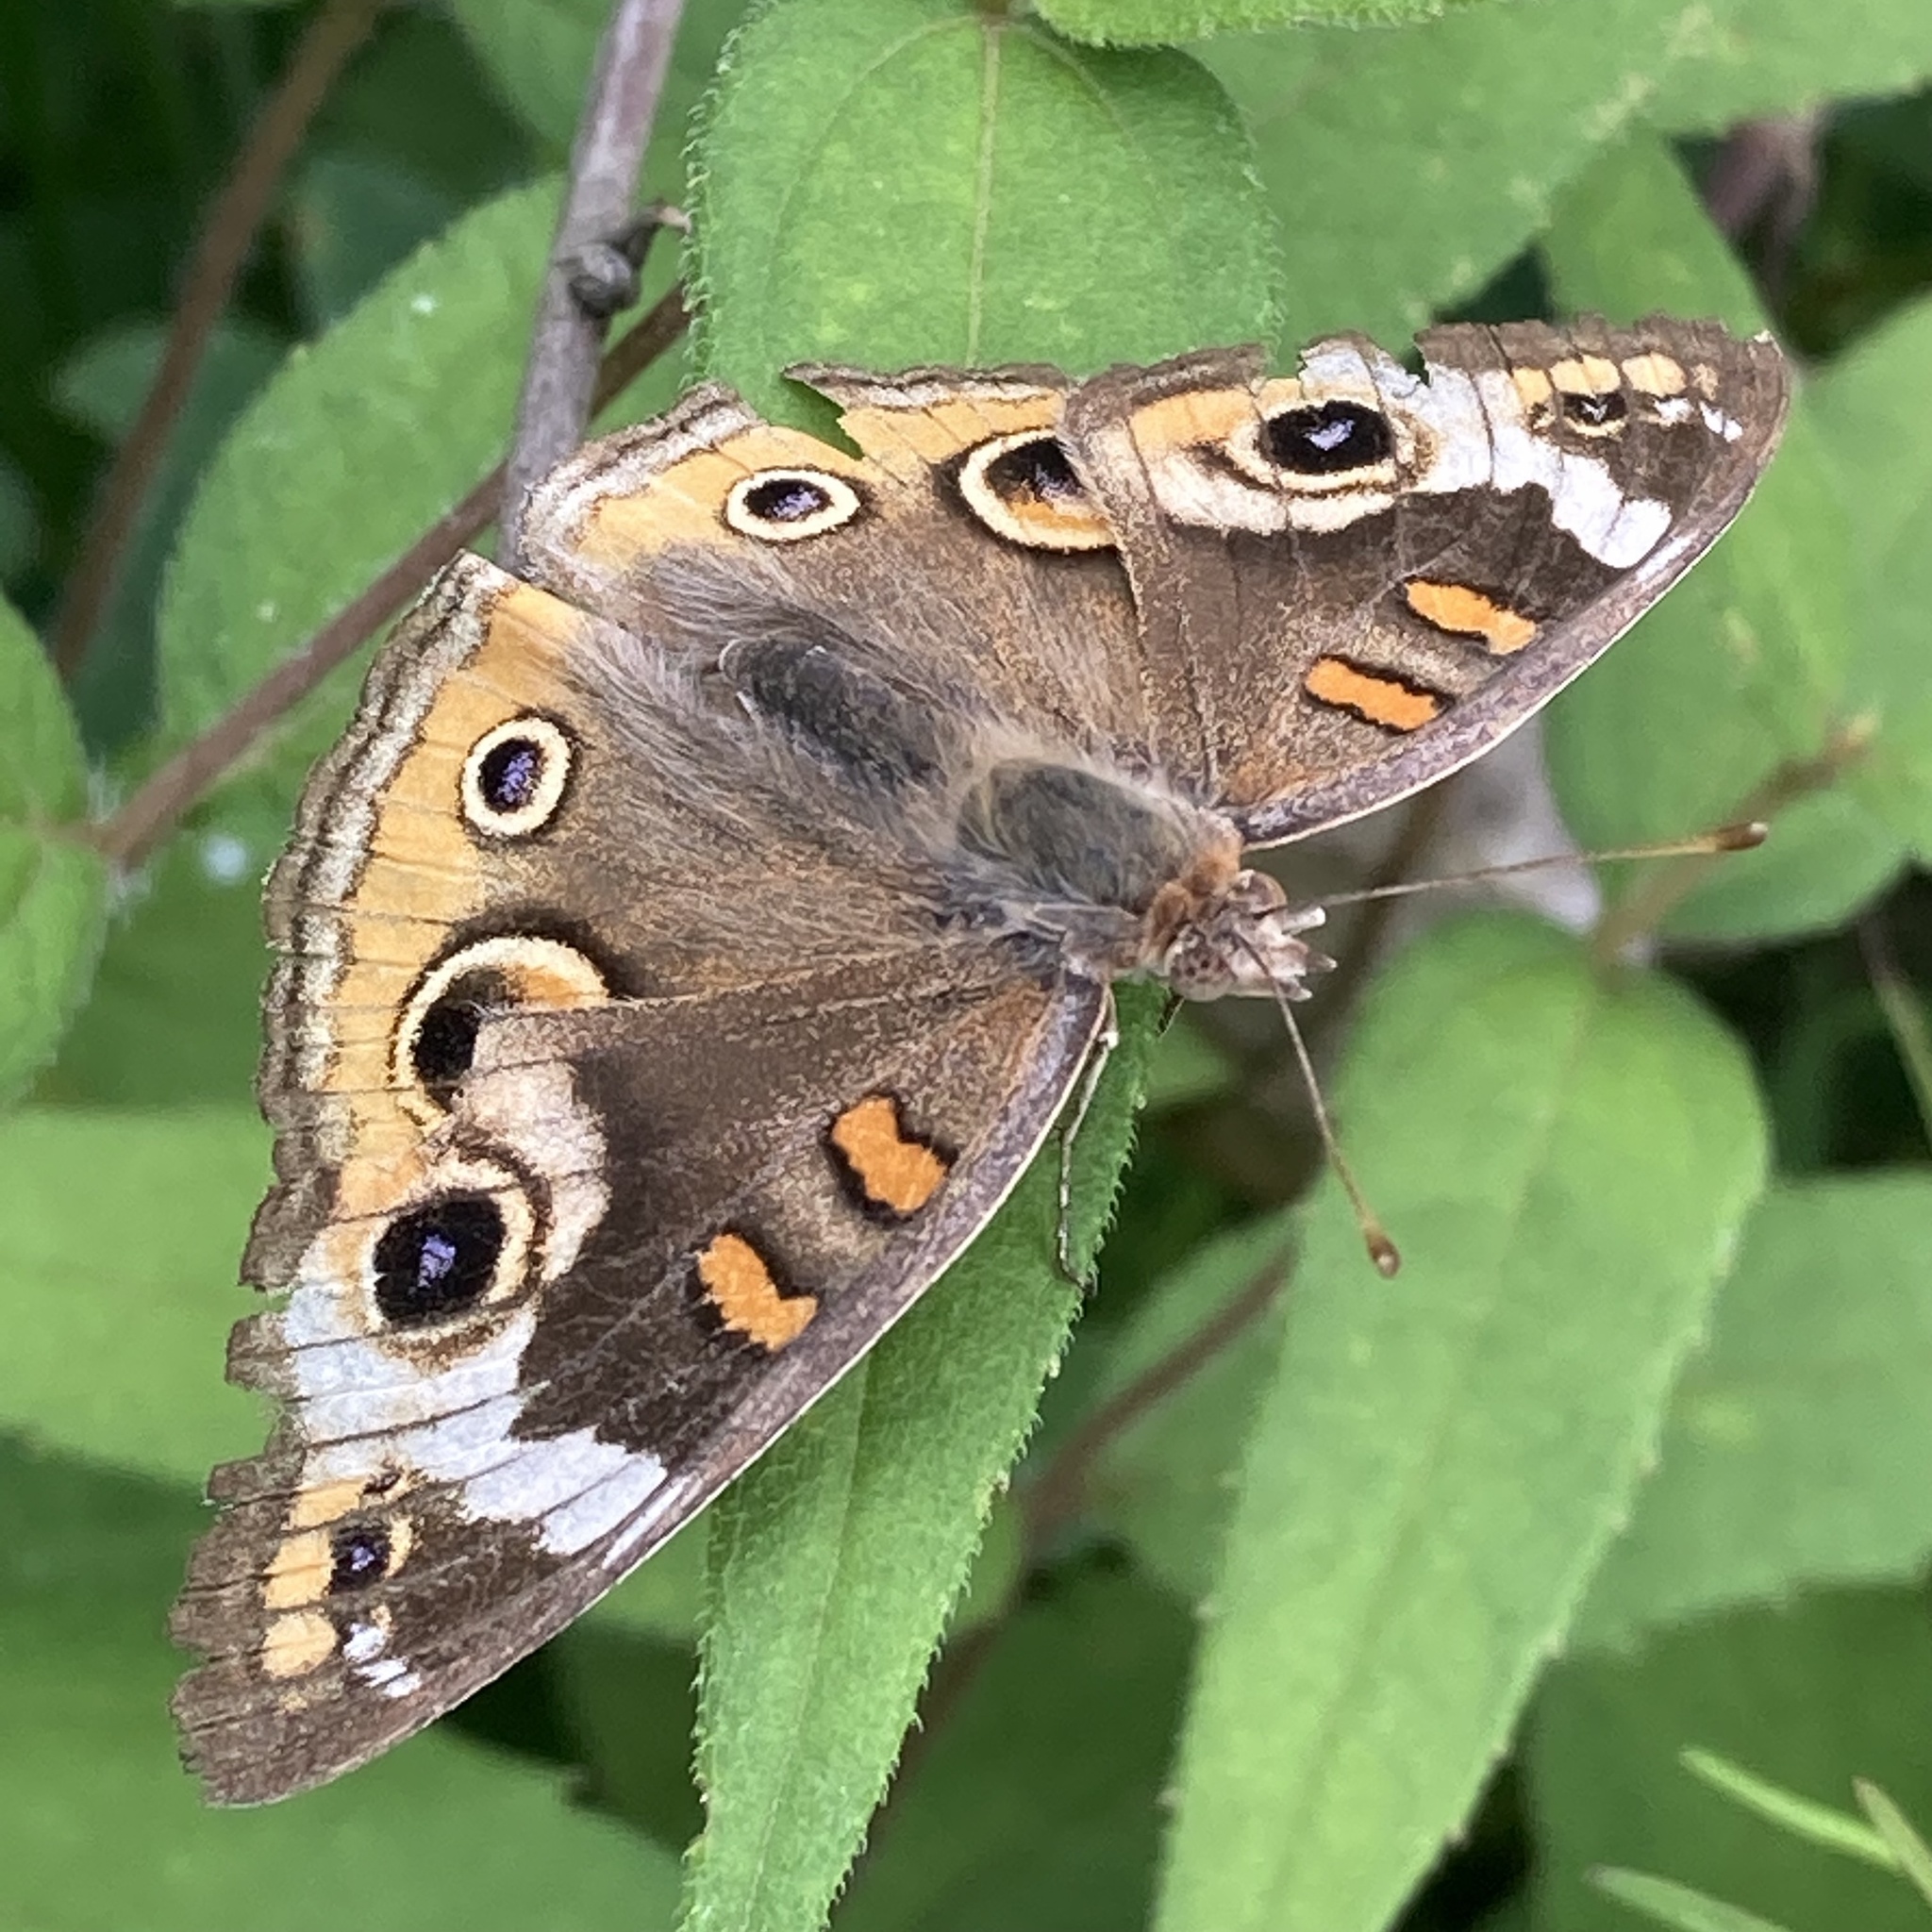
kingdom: Animalia
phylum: Arthropoda
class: Insecta
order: Lepidoptera
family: Nymphalidae
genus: Junonia
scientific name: Junonia coenia
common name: Common buckeye
